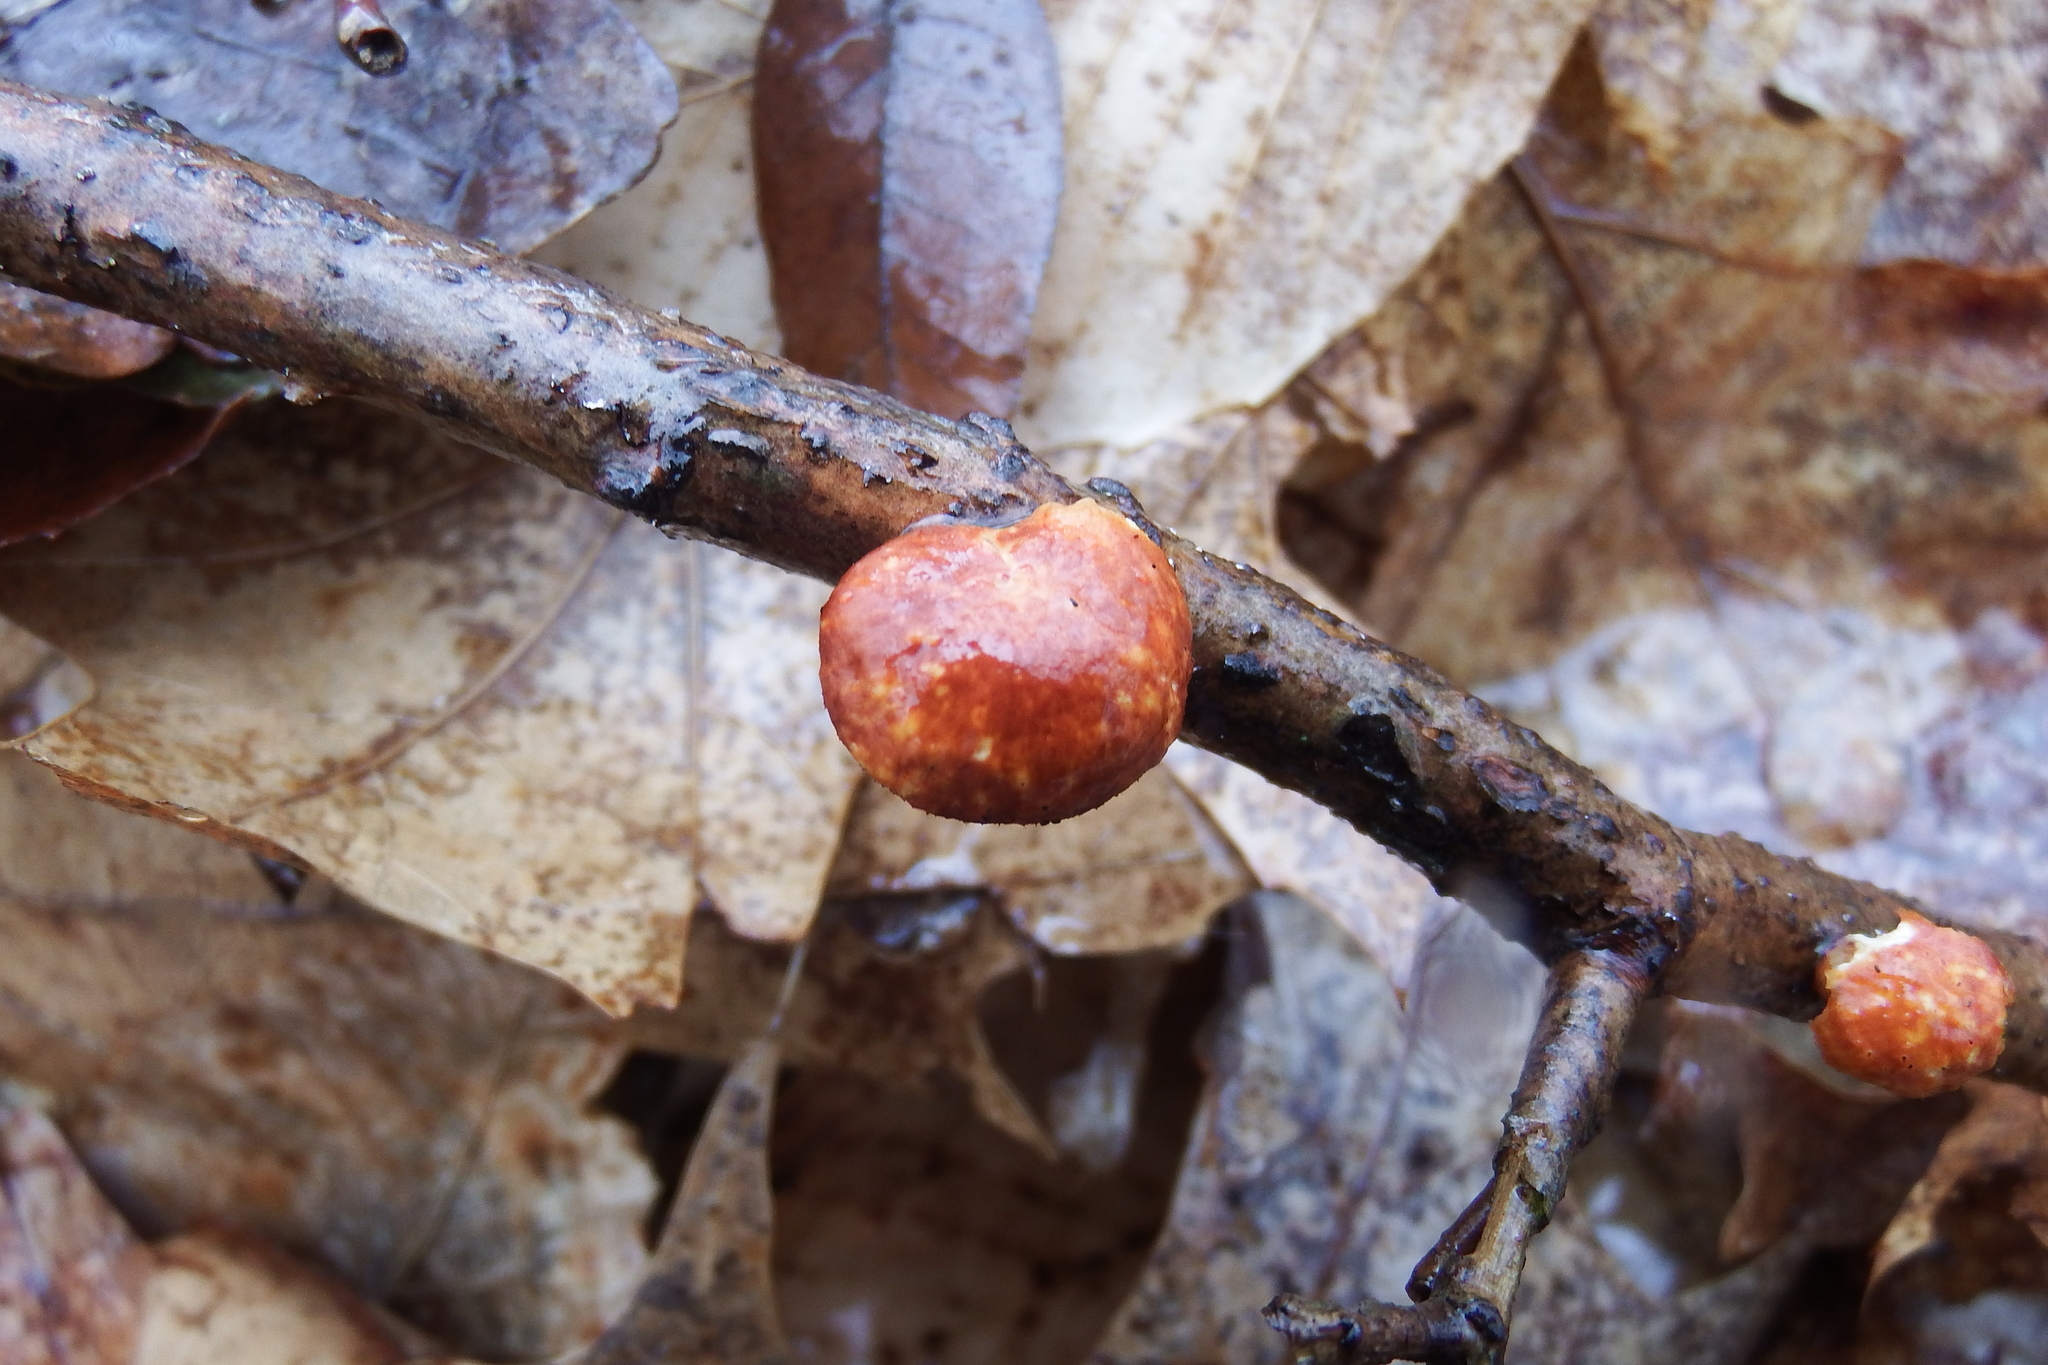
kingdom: Fungi
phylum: Basidiomycota
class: Agaricomycetes
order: Polyporales
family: Polyporaceae
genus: Neofavolus
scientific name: Neofavolus alveolaris
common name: Hexagonal-pored polypore
